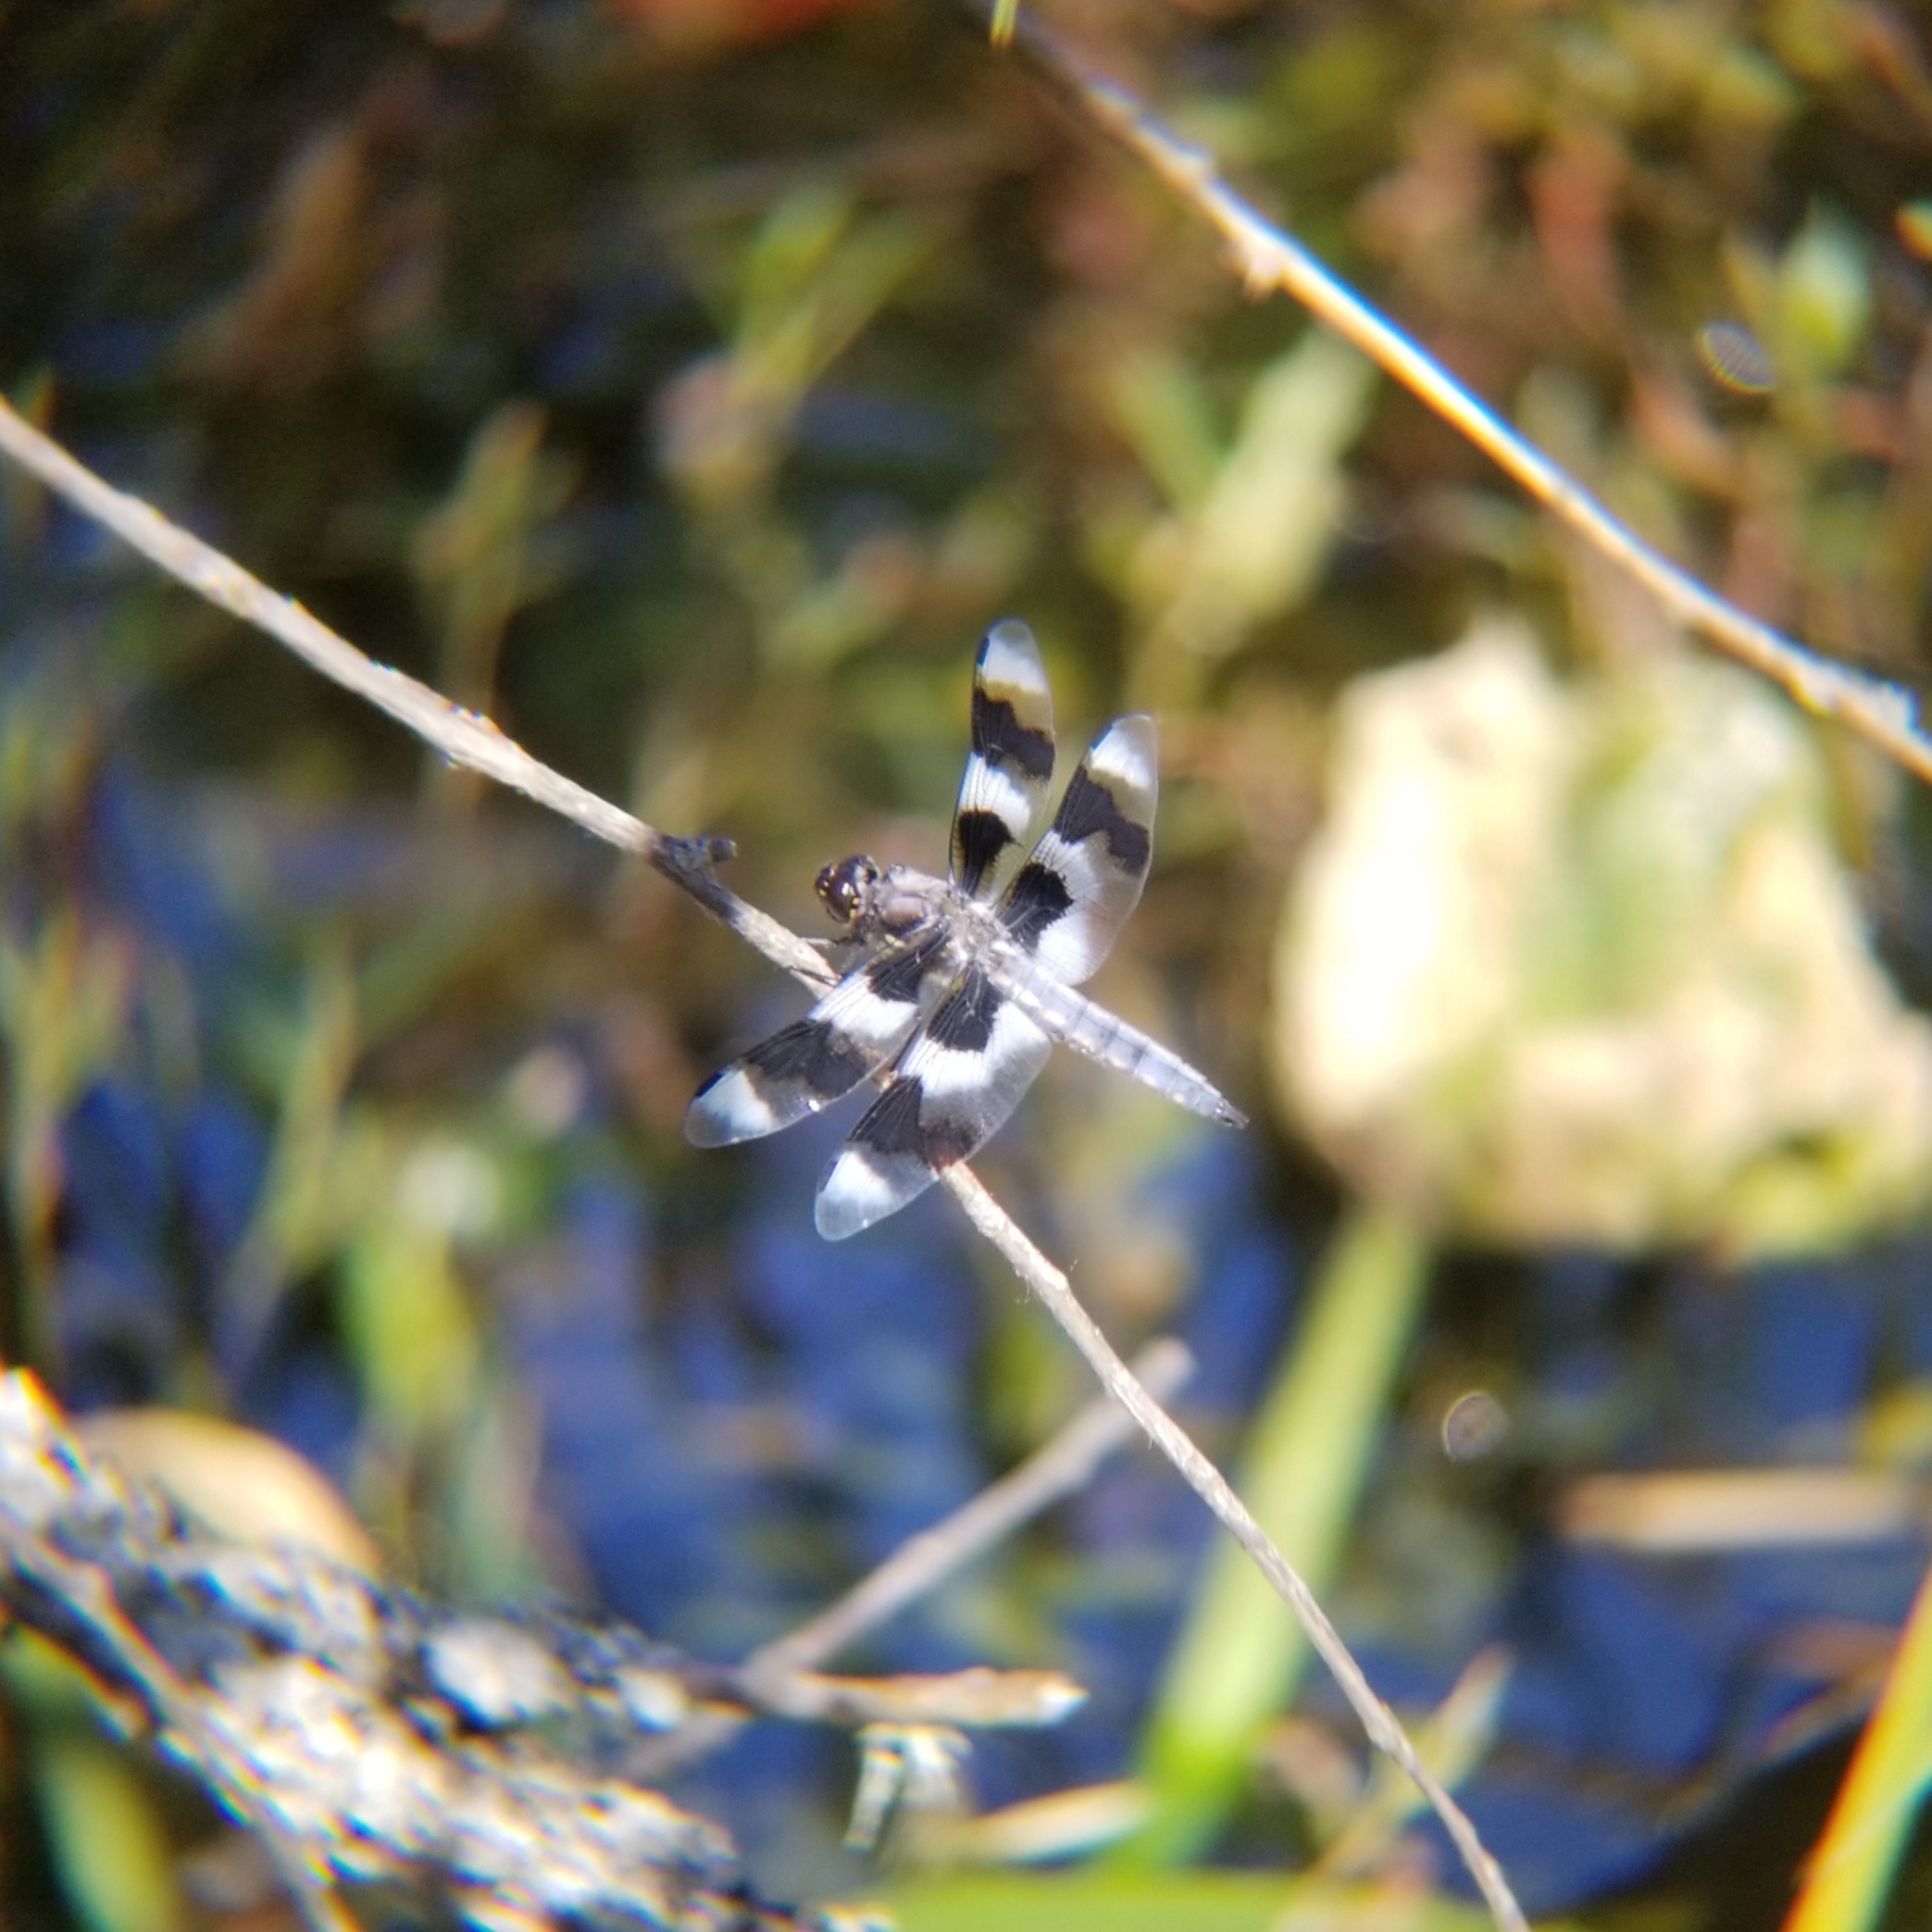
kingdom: Animalia
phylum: Arthropoda
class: Insecta
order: Odonata
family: Libellulidae
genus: Libellula
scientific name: Libellula forensis
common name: Eight-spotted skimmer
